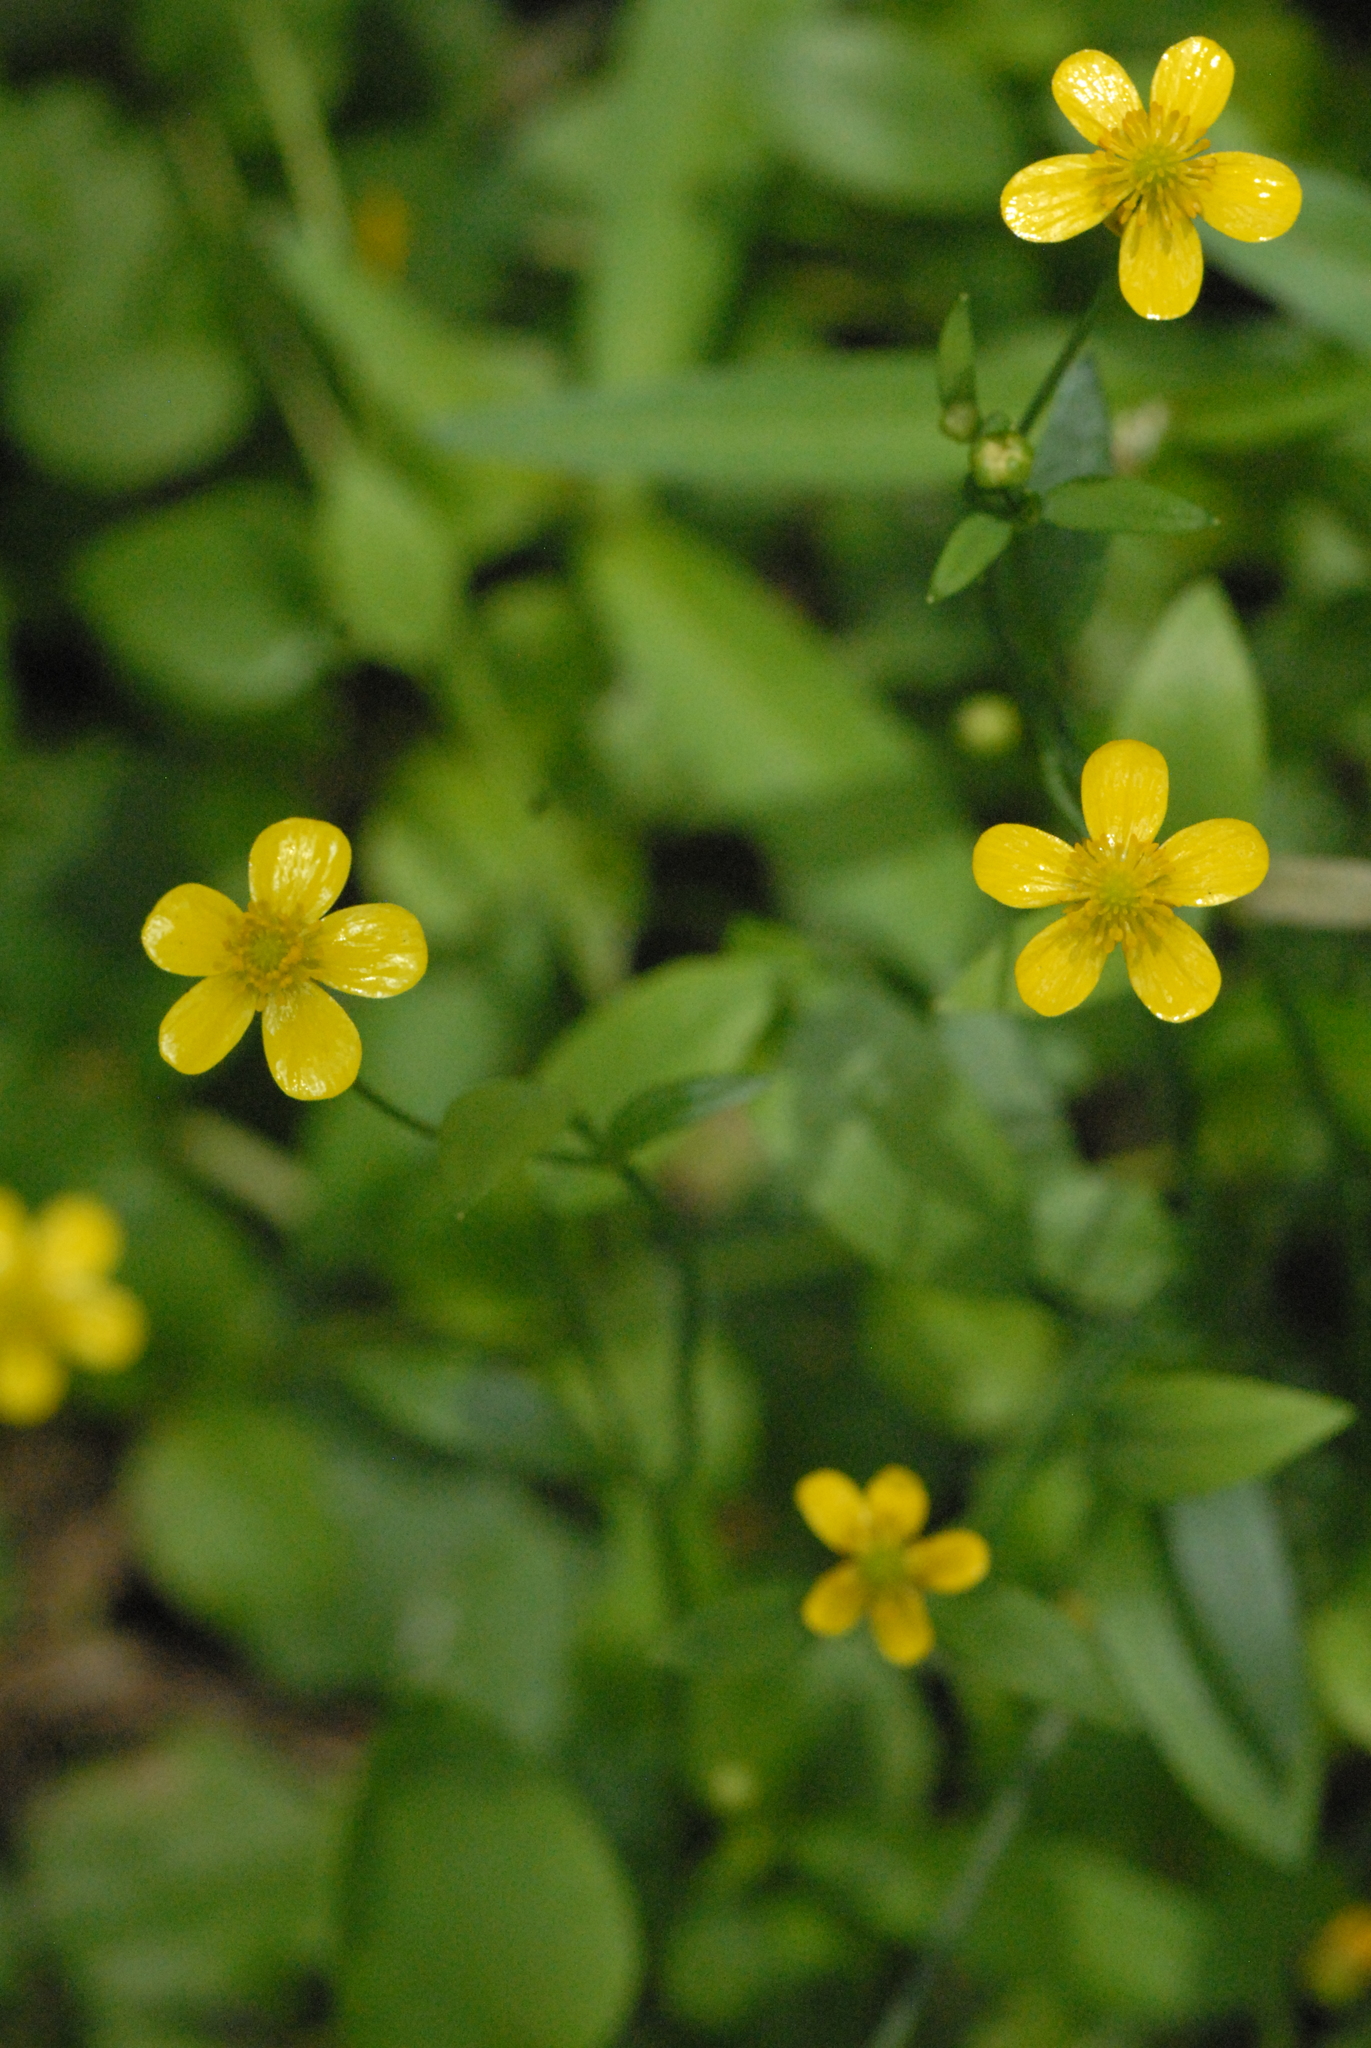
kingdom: Plantae
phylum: Tracheophyta
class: Magnoliopsida
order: Ranunculales
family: Ranunculaceae
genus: Ranunculus
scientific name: Ranunculus flammula
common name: Lesser spearwort
